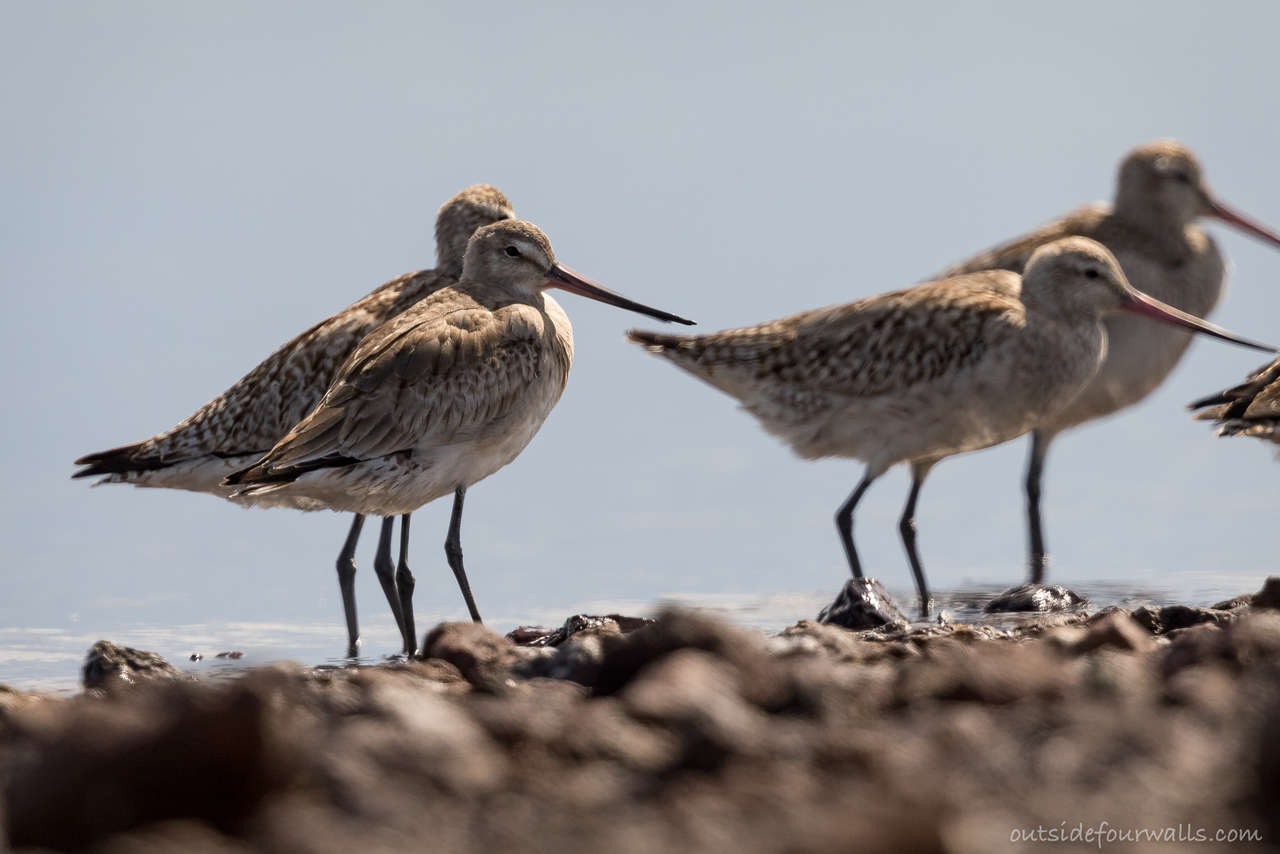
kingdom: Animalia
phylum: Chordata
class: Aves
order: Charadriiformes
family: Scolopacidae
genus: Limosa
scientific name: Limosa haemastica
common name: Hudsonian godwit
